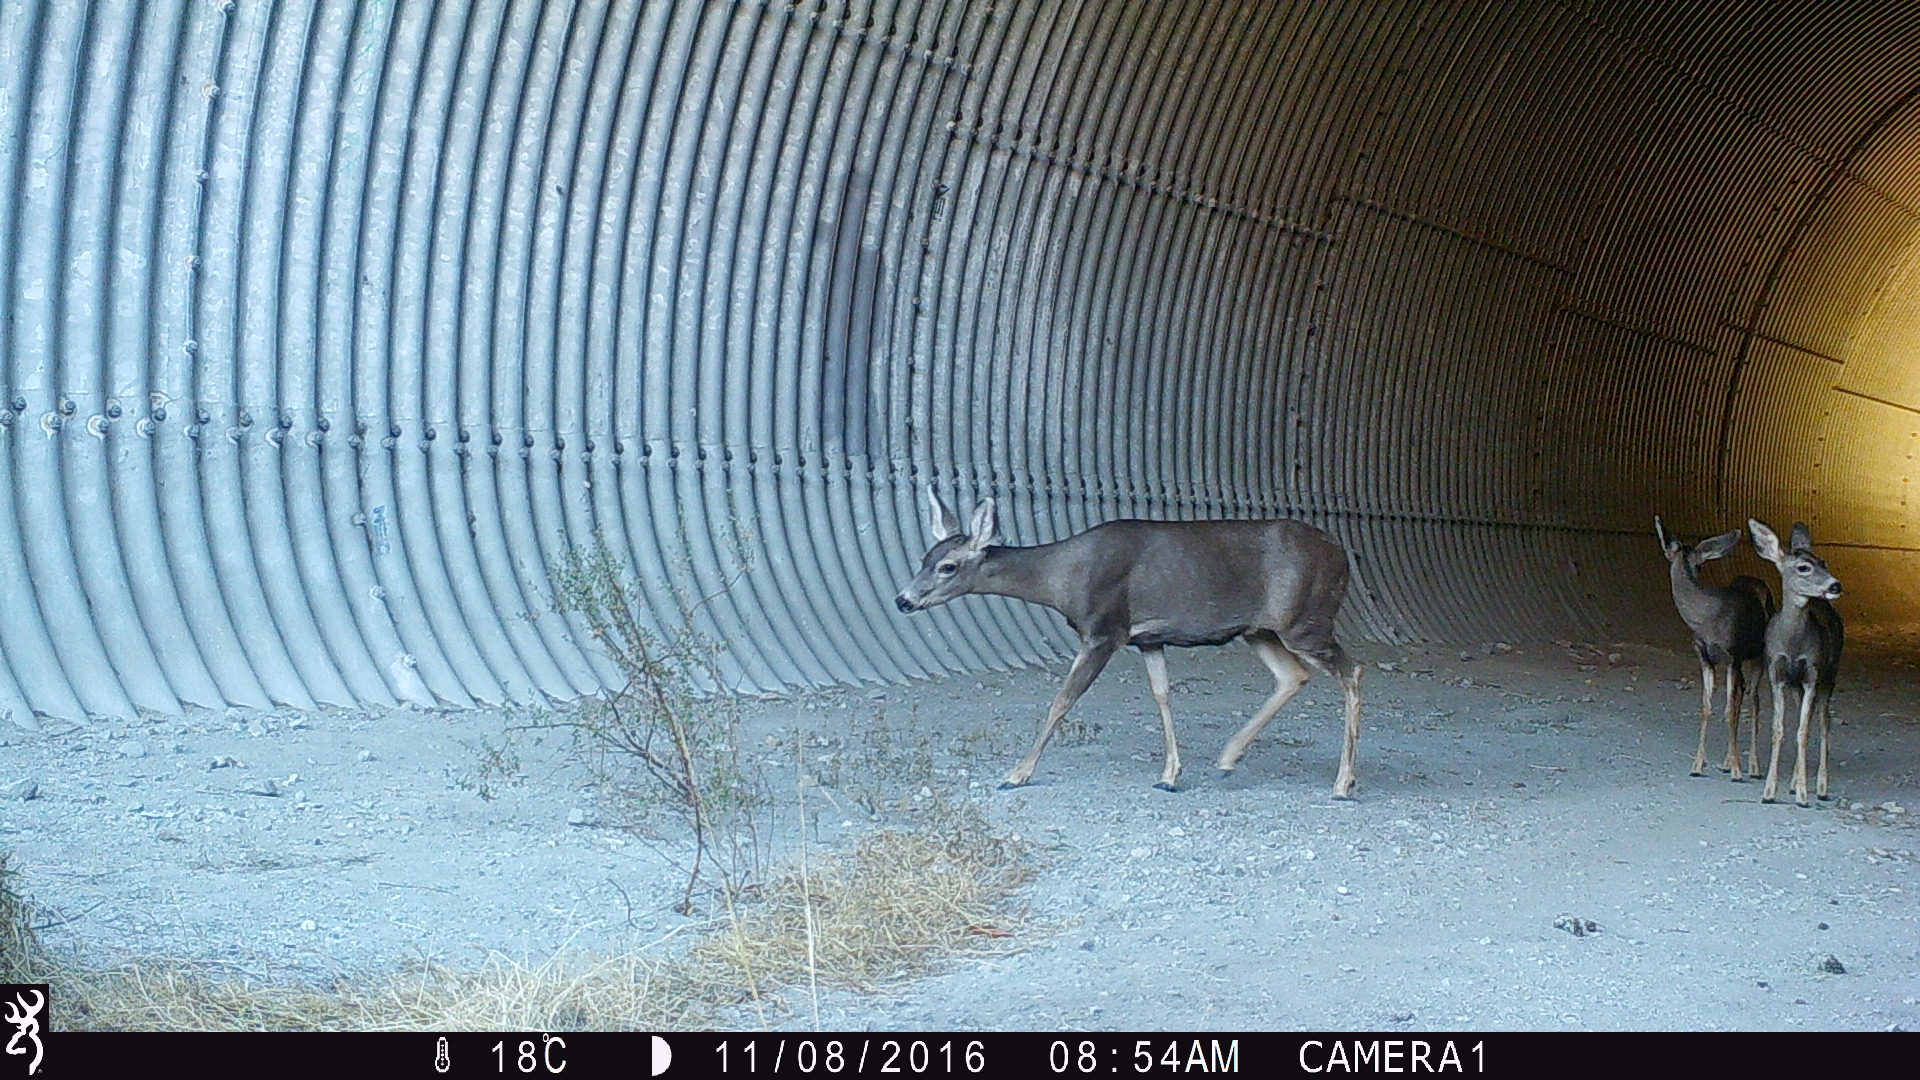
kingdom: Animalia
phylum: Chordata
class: Mammalia
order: Artiodactyla
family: Cervidae
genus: Odocoileus
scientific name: Odocoileus hemionus
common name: Mule deer
